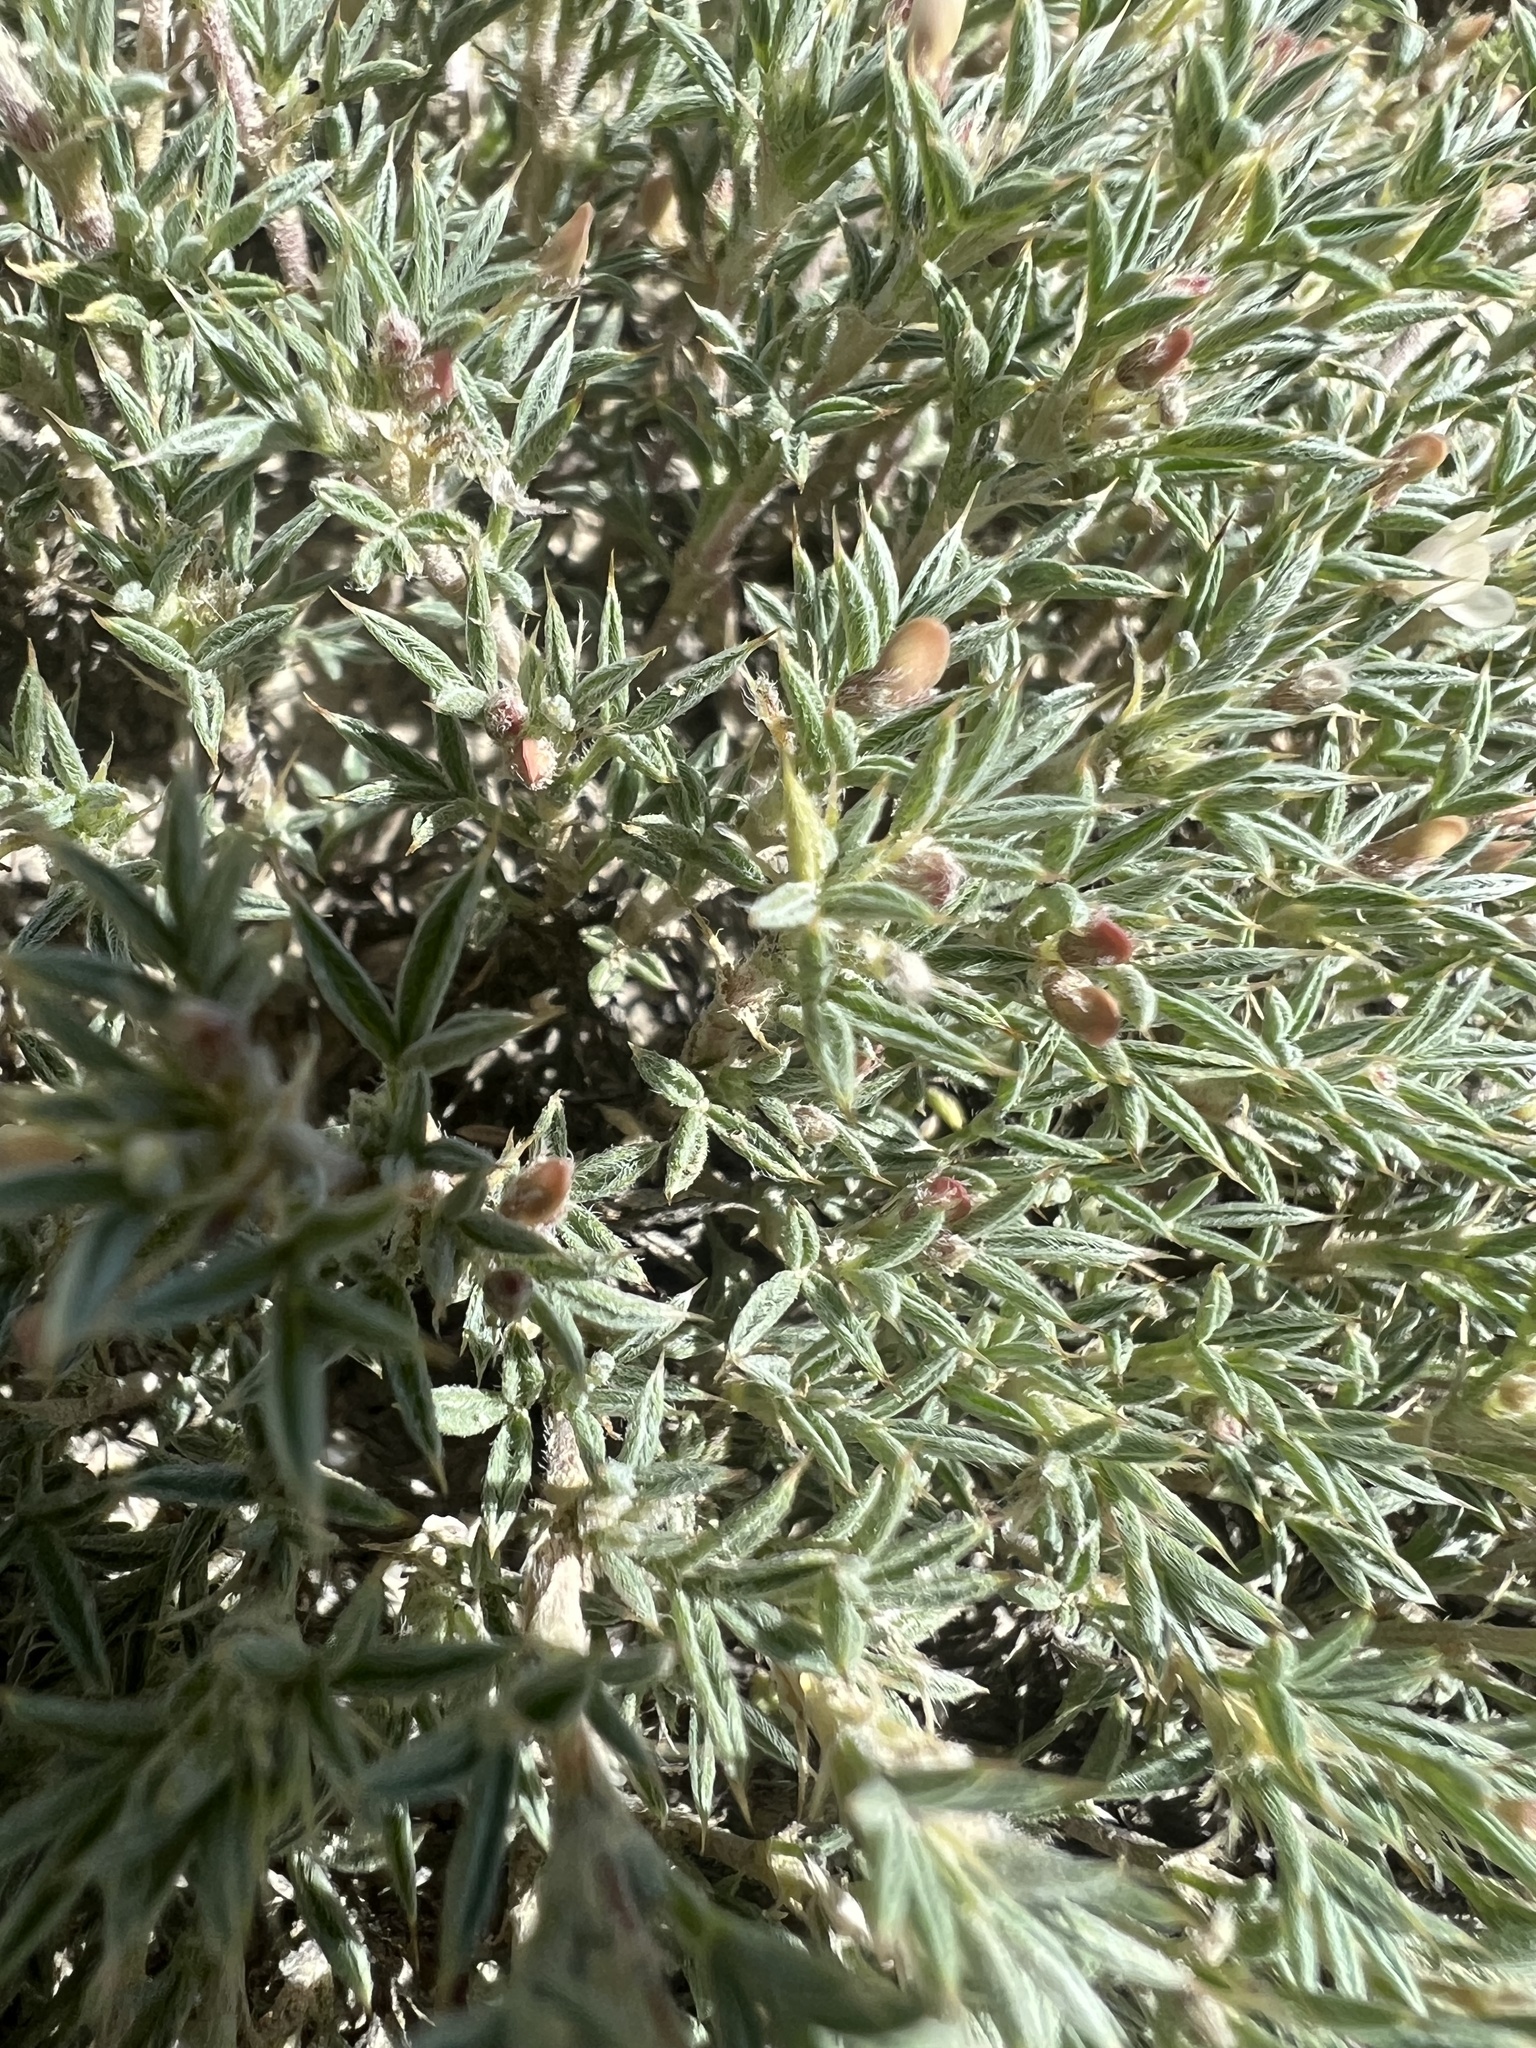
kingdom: Plantae
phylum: Tracheophyta
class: Magnoliopsida
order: Fabales
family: Fabaceae
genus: Astragalus
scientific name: Astragalus kentrophyta
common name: Prickly milk-vetch
